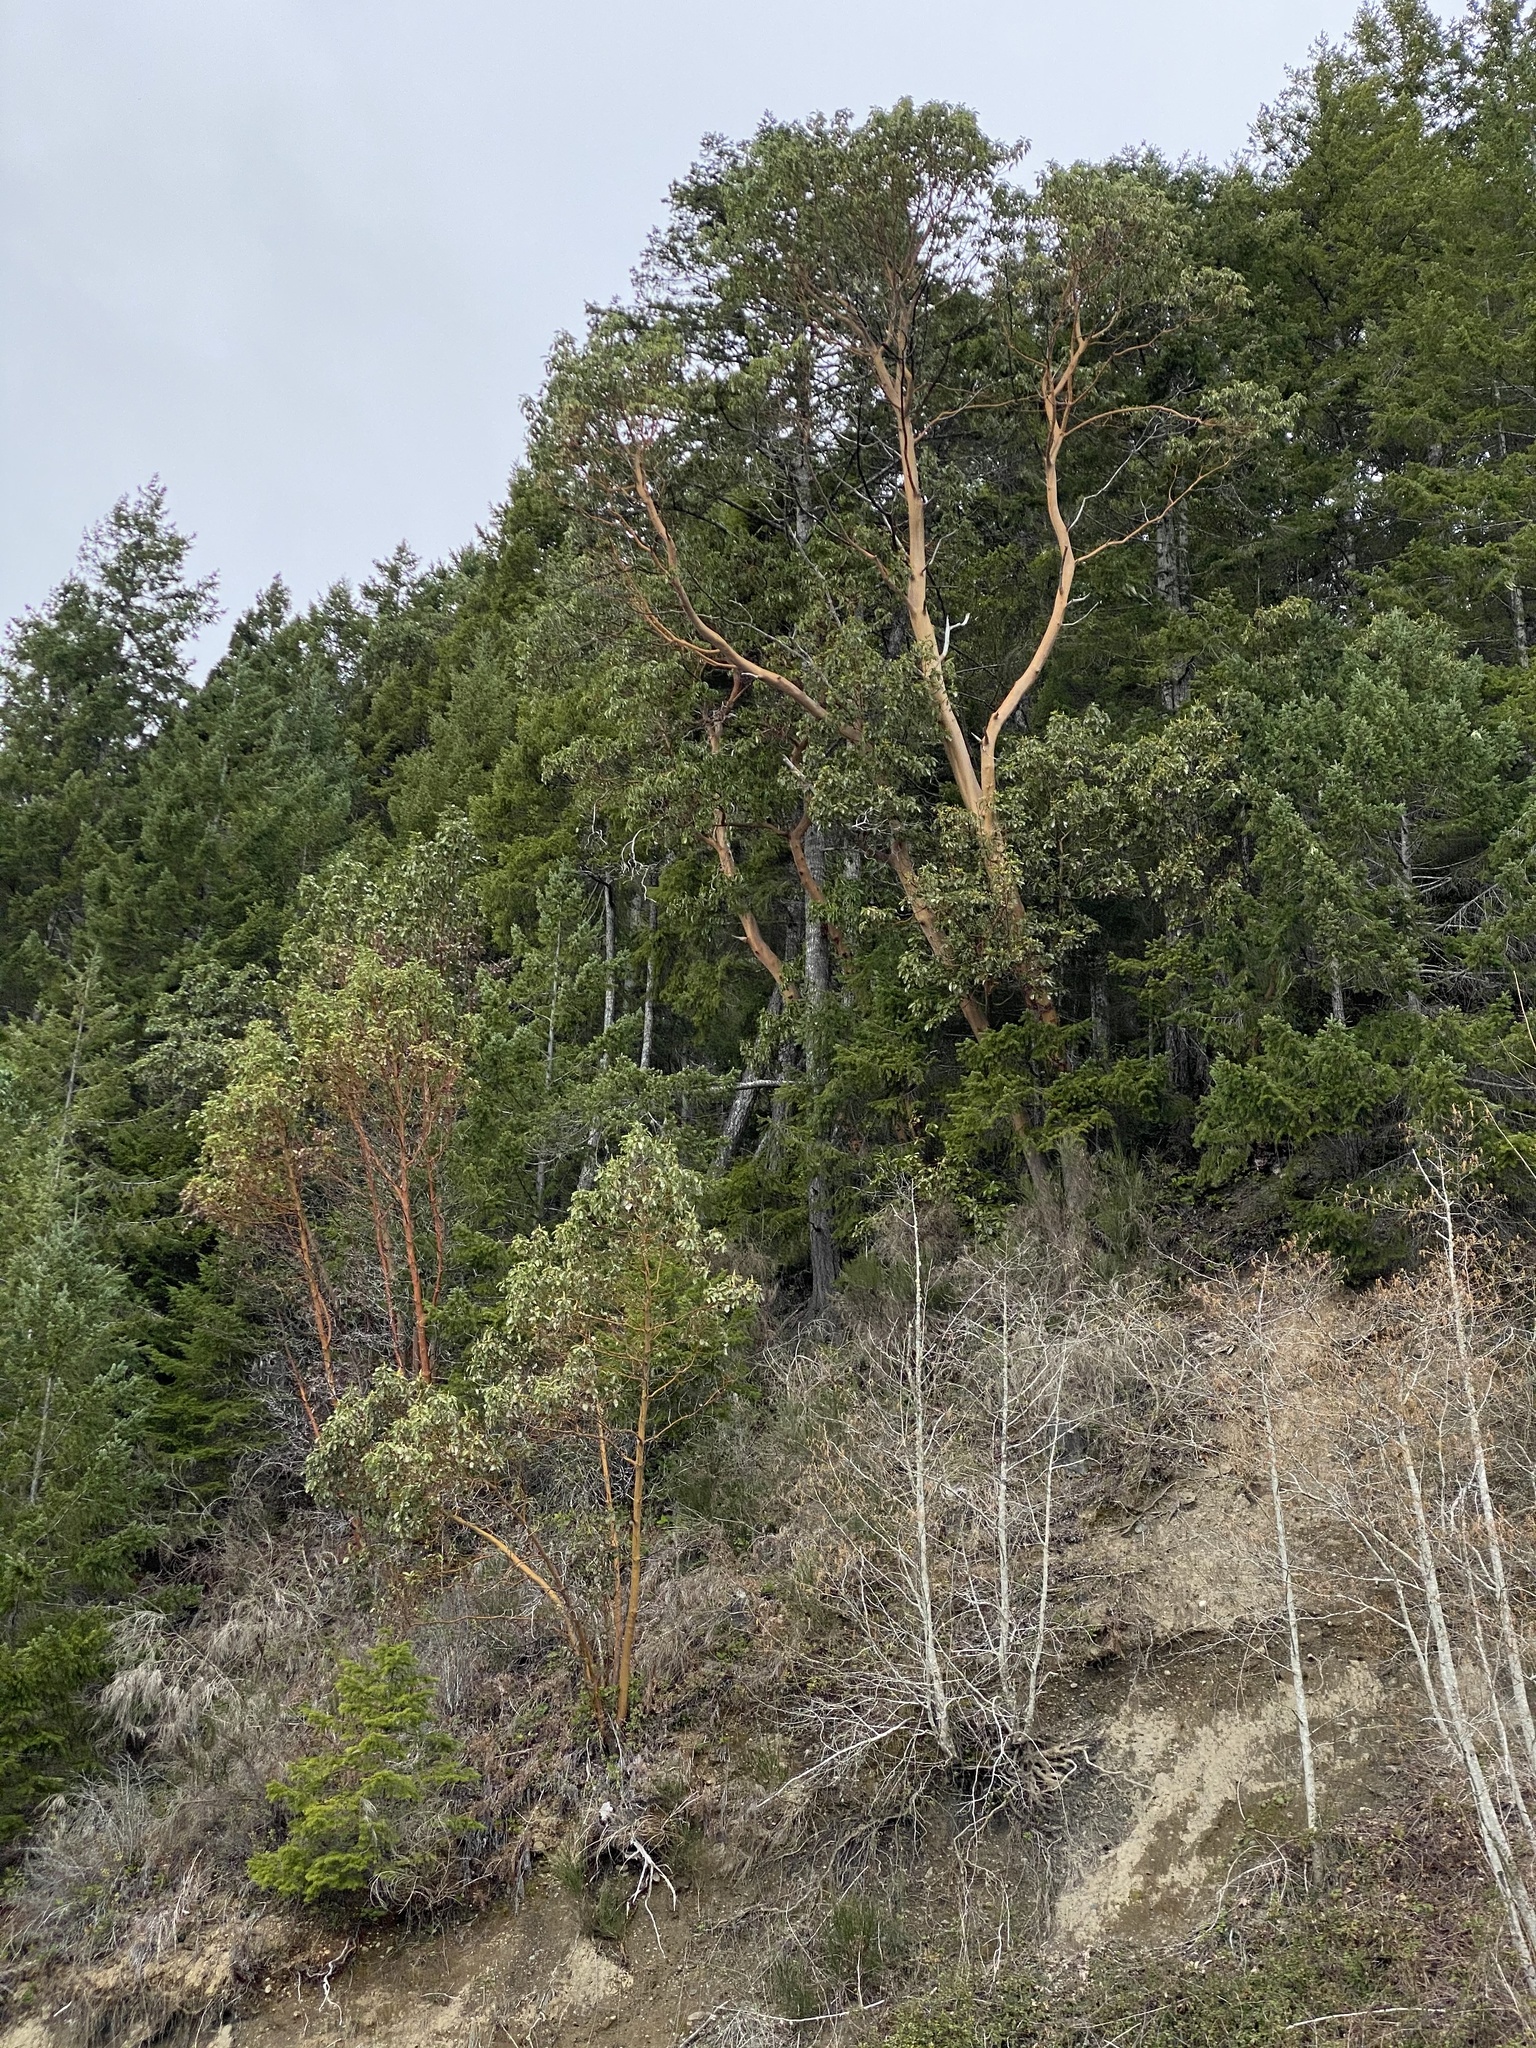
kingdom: Plantae
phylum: Tracheophyta
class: Magnoliopsida
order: Ericales
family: Ericaceae
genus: Arbutus
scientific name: Arbutus menziesii
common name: Pacific madrone
